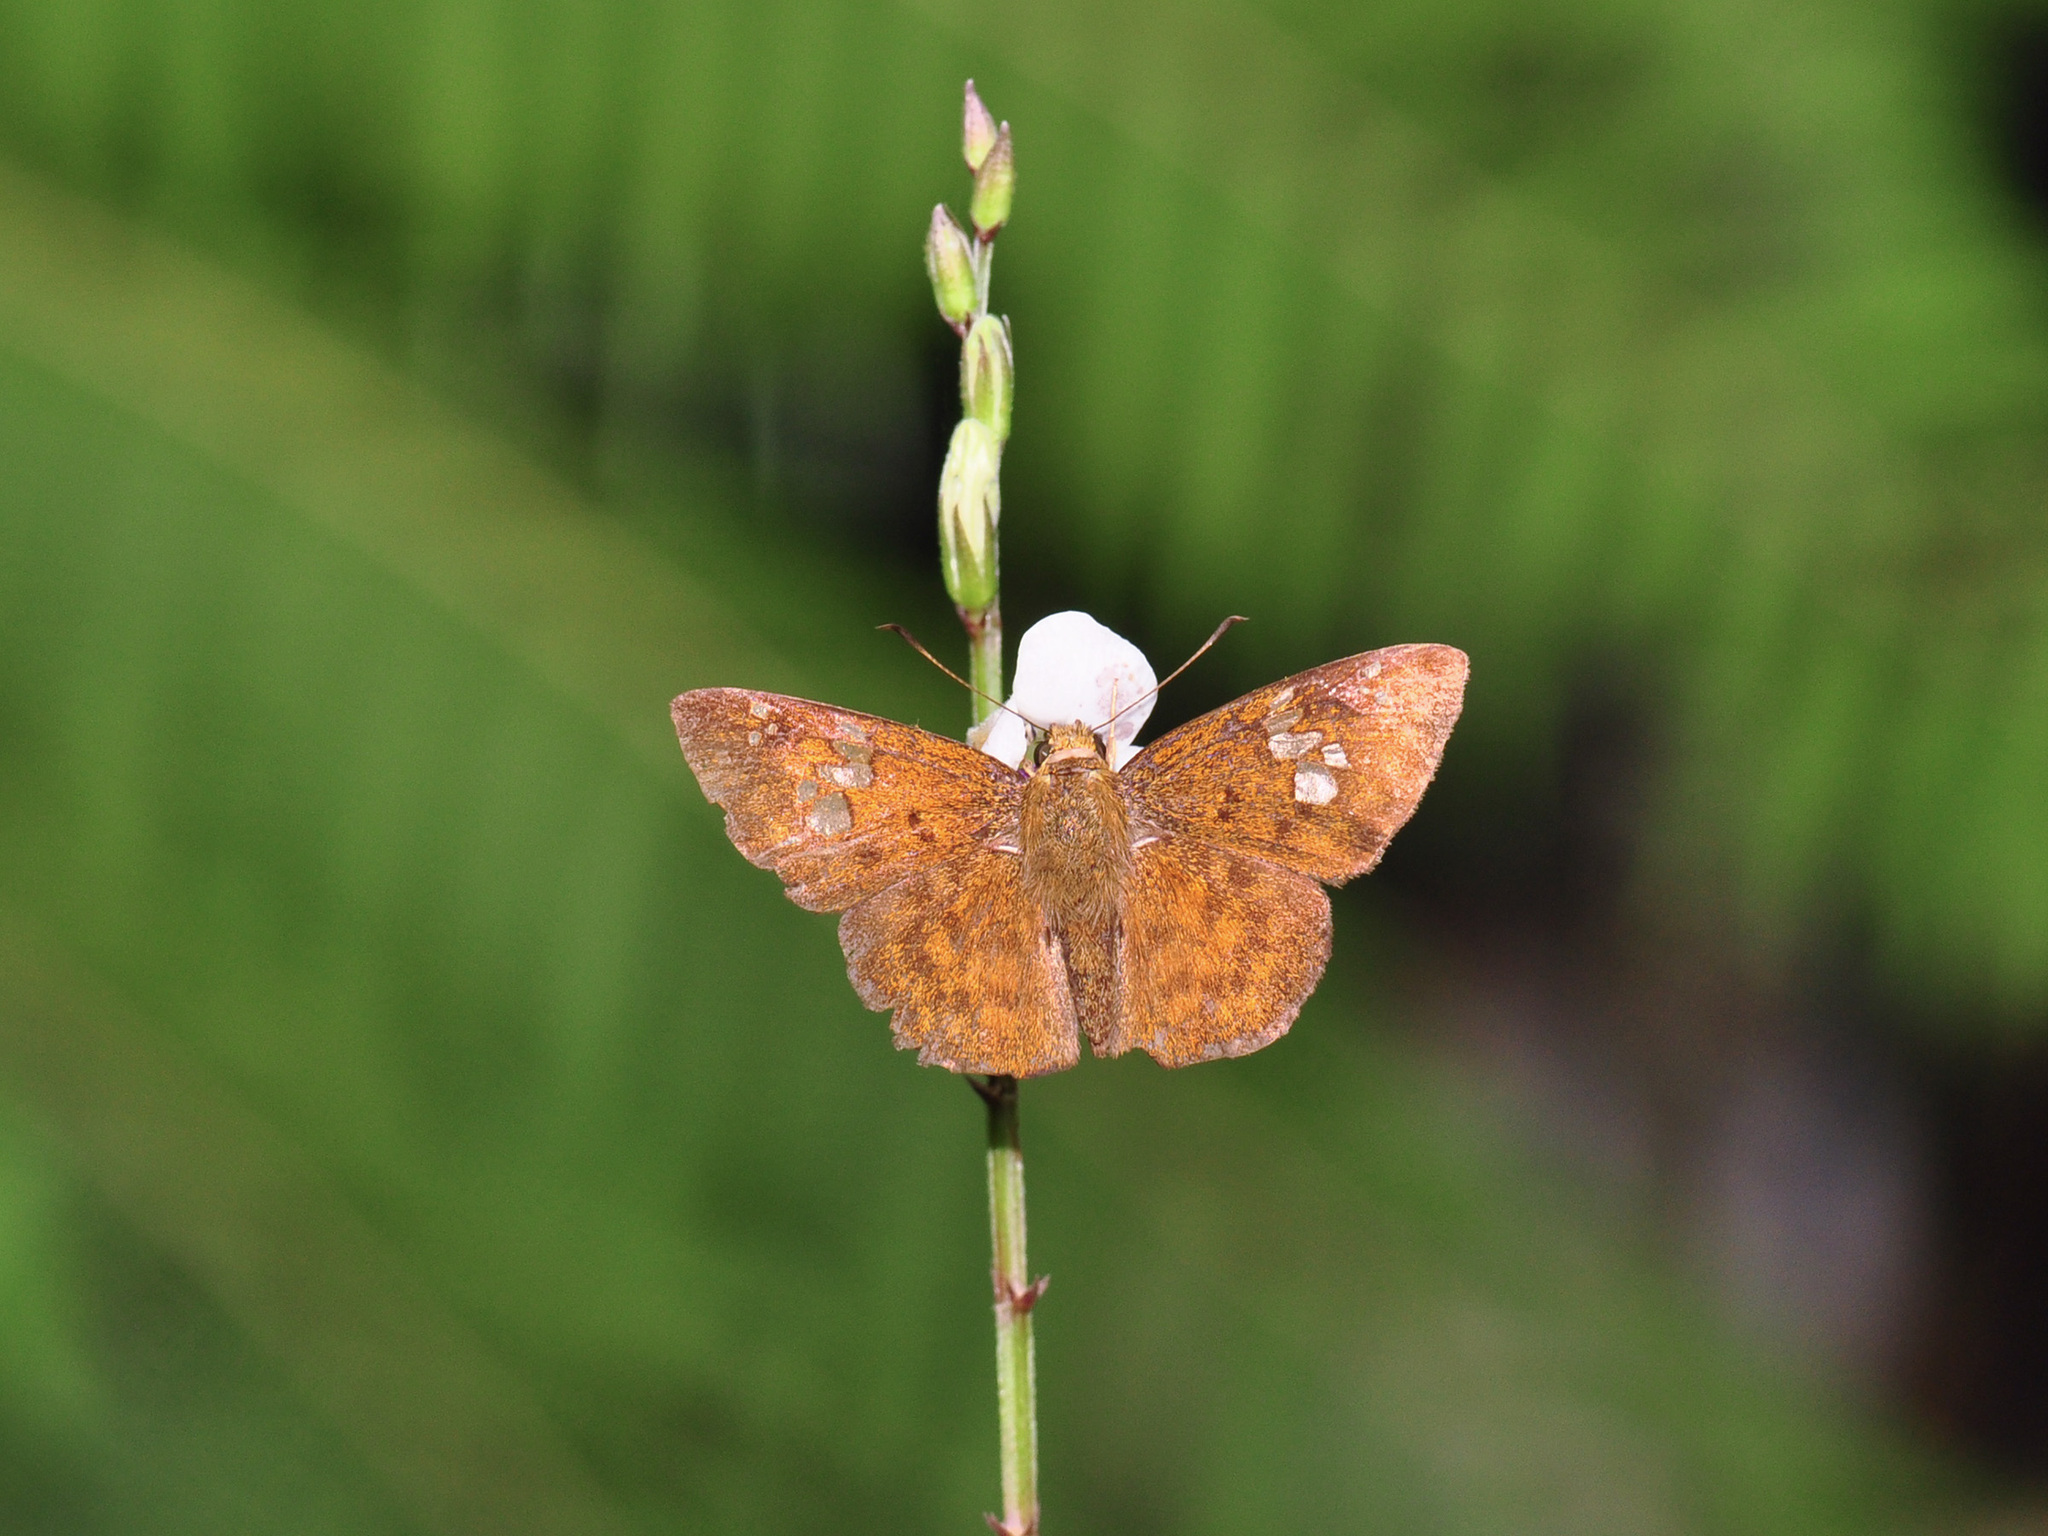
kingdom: Animalia
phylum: Arthropoda
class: Insecta
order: Lepidoptera
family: Hesperiidae
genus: Pseudocoladenia
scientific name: Pseudocoladenia dan
